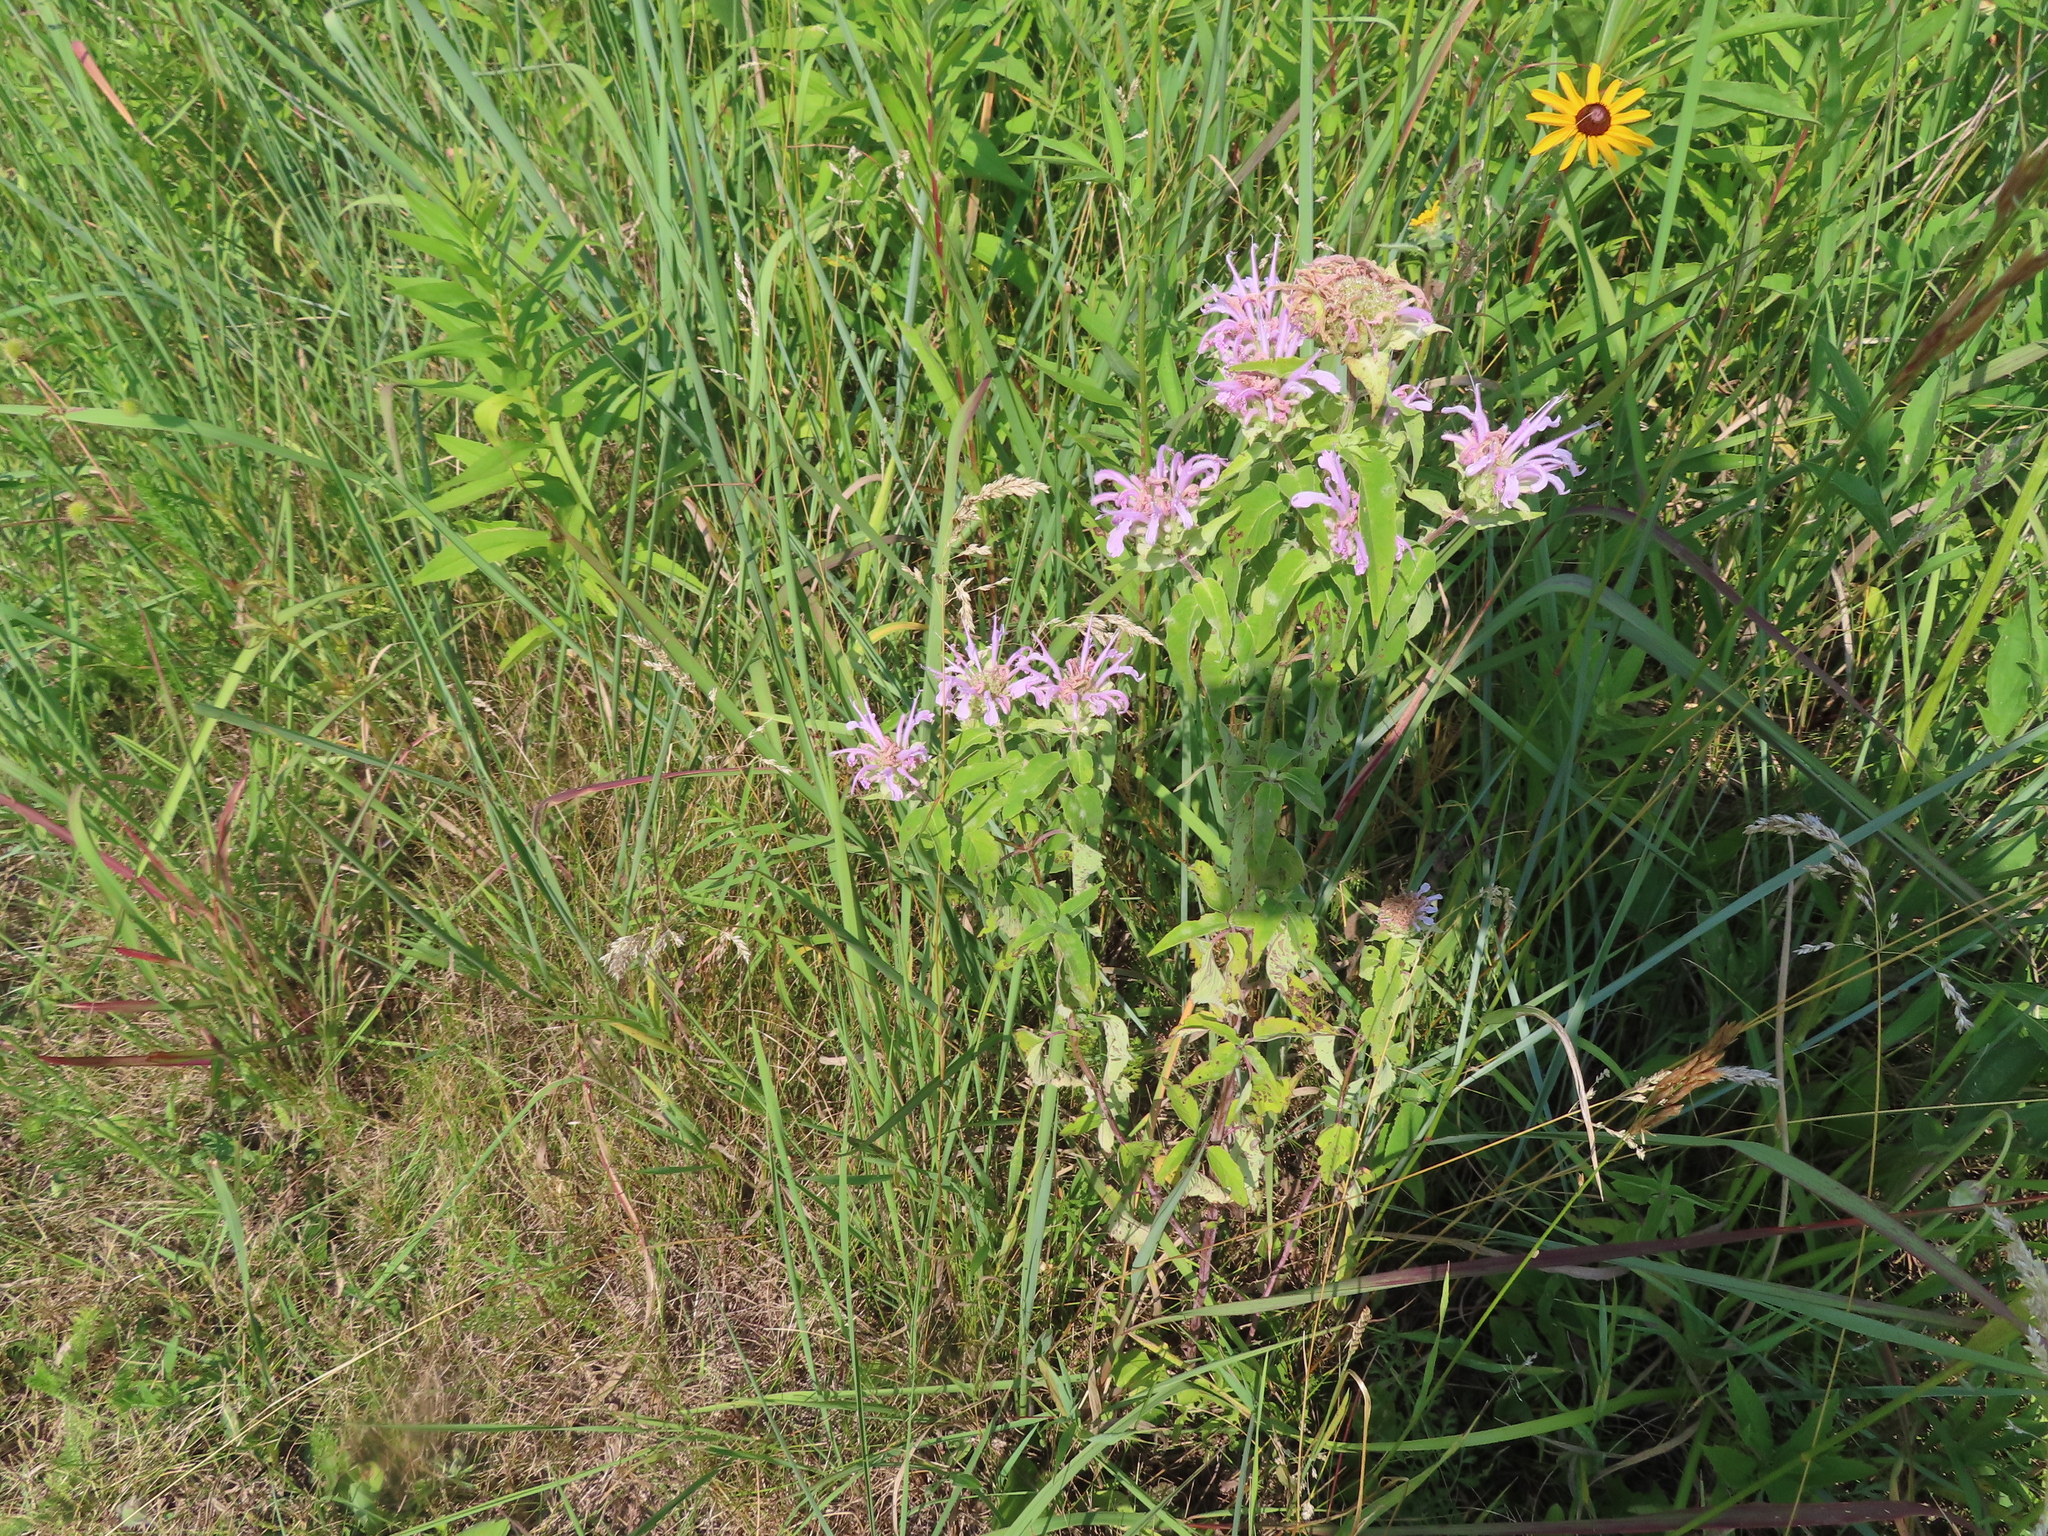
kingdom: Plantae
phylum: Tracheophyta
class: Magnoliopsida
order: Lamiales
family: Lamiaceae
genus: Monarda
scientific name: Monarda fistulosa
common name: Purple beebalm
